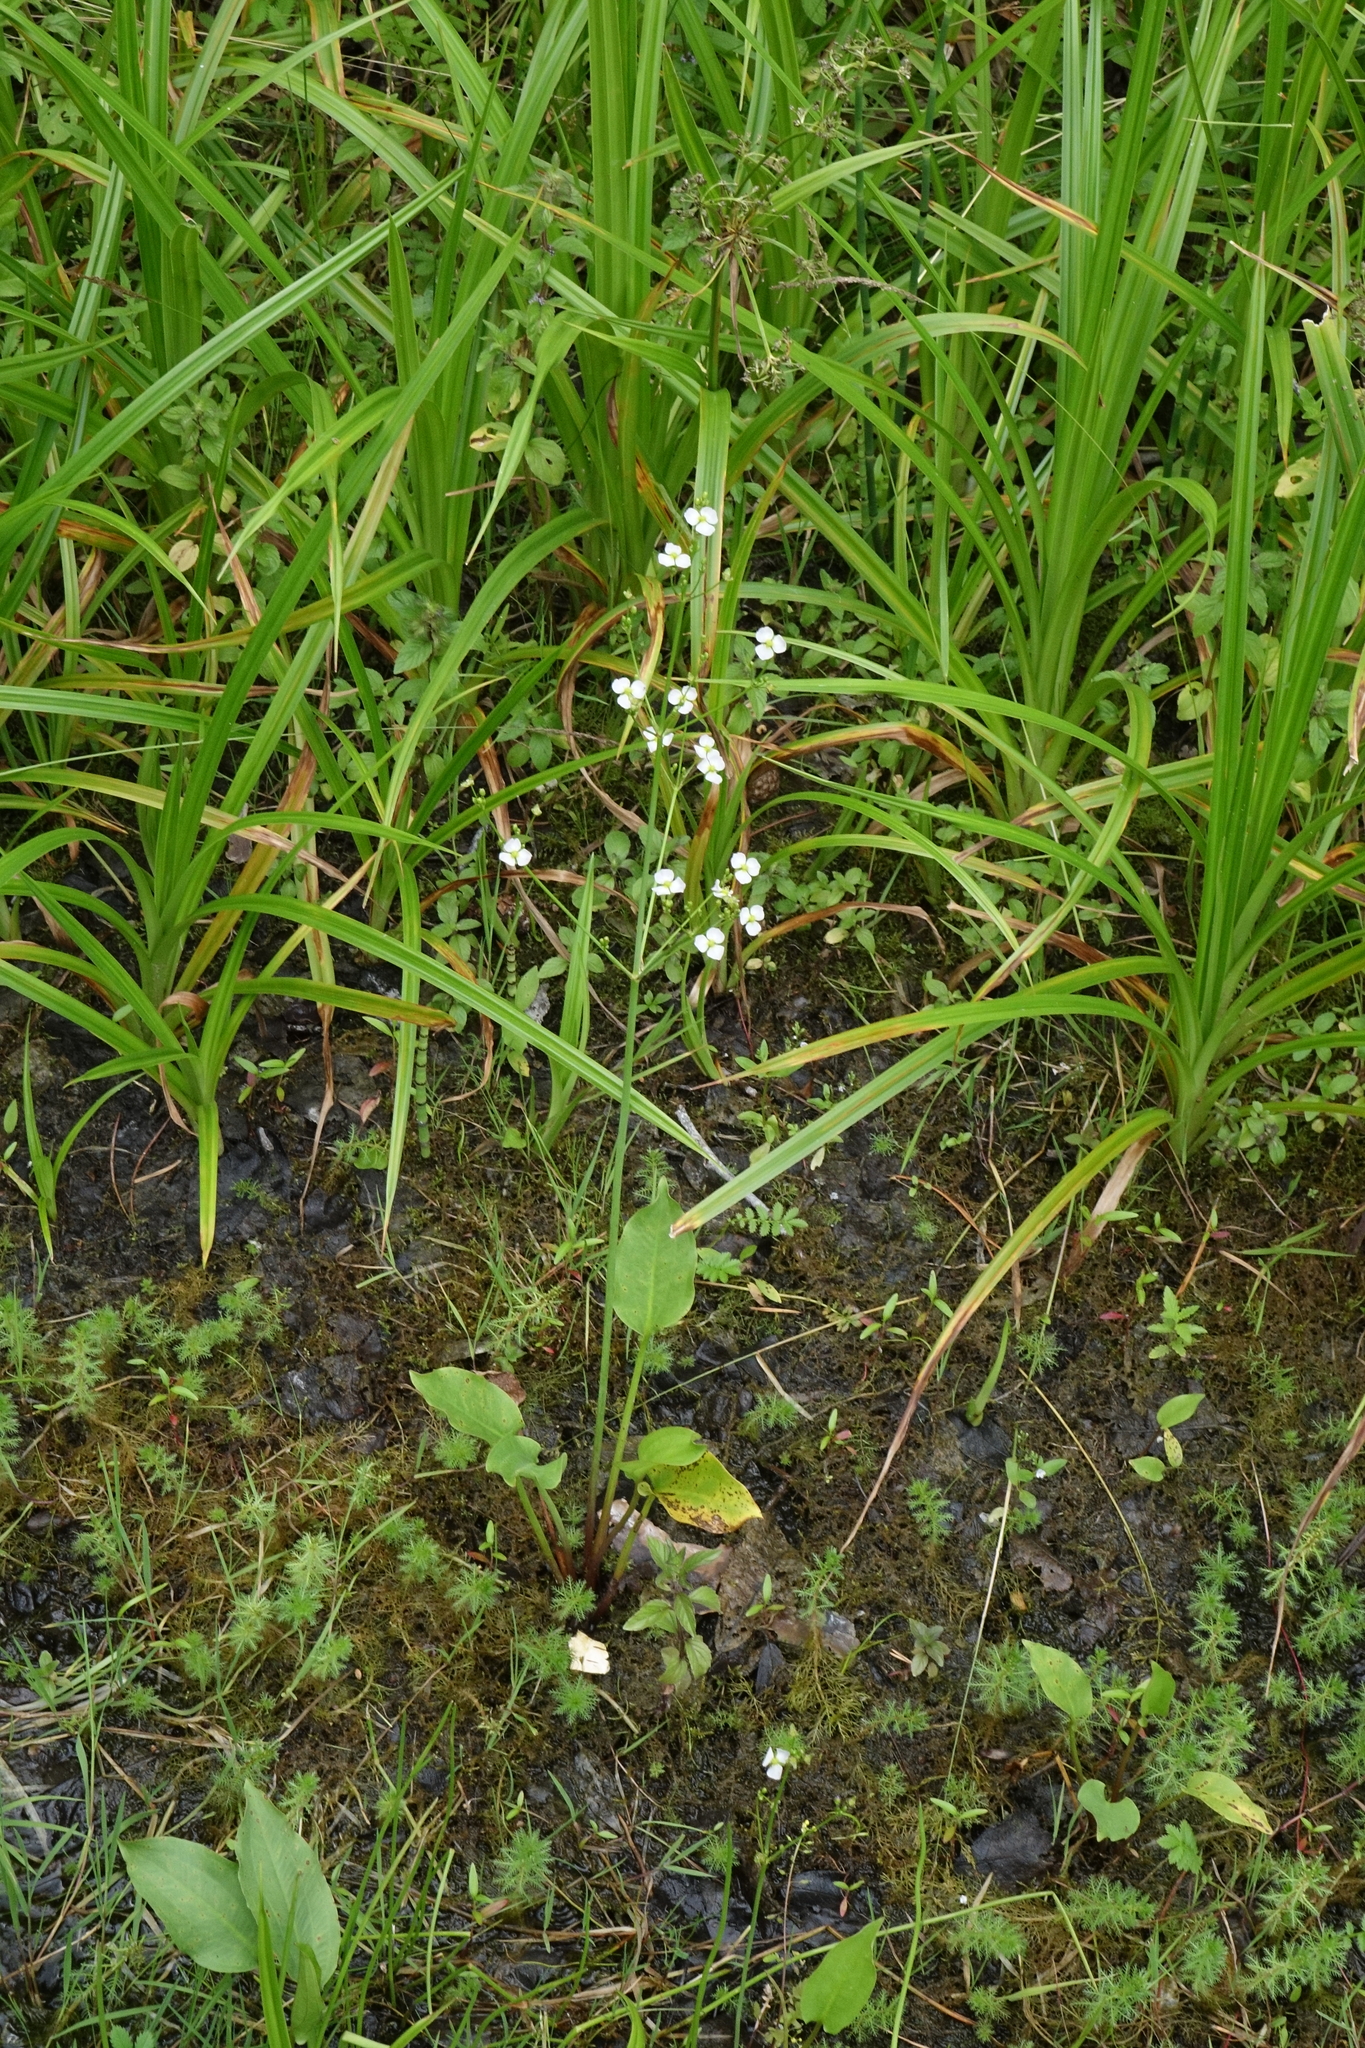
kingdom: Plantae
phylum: Tracheophyta
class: Liliopsida
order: Alismatales
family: Alismataceae
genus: Alisma
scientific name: Alisma plantago-aquatica
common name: Water-plantain
